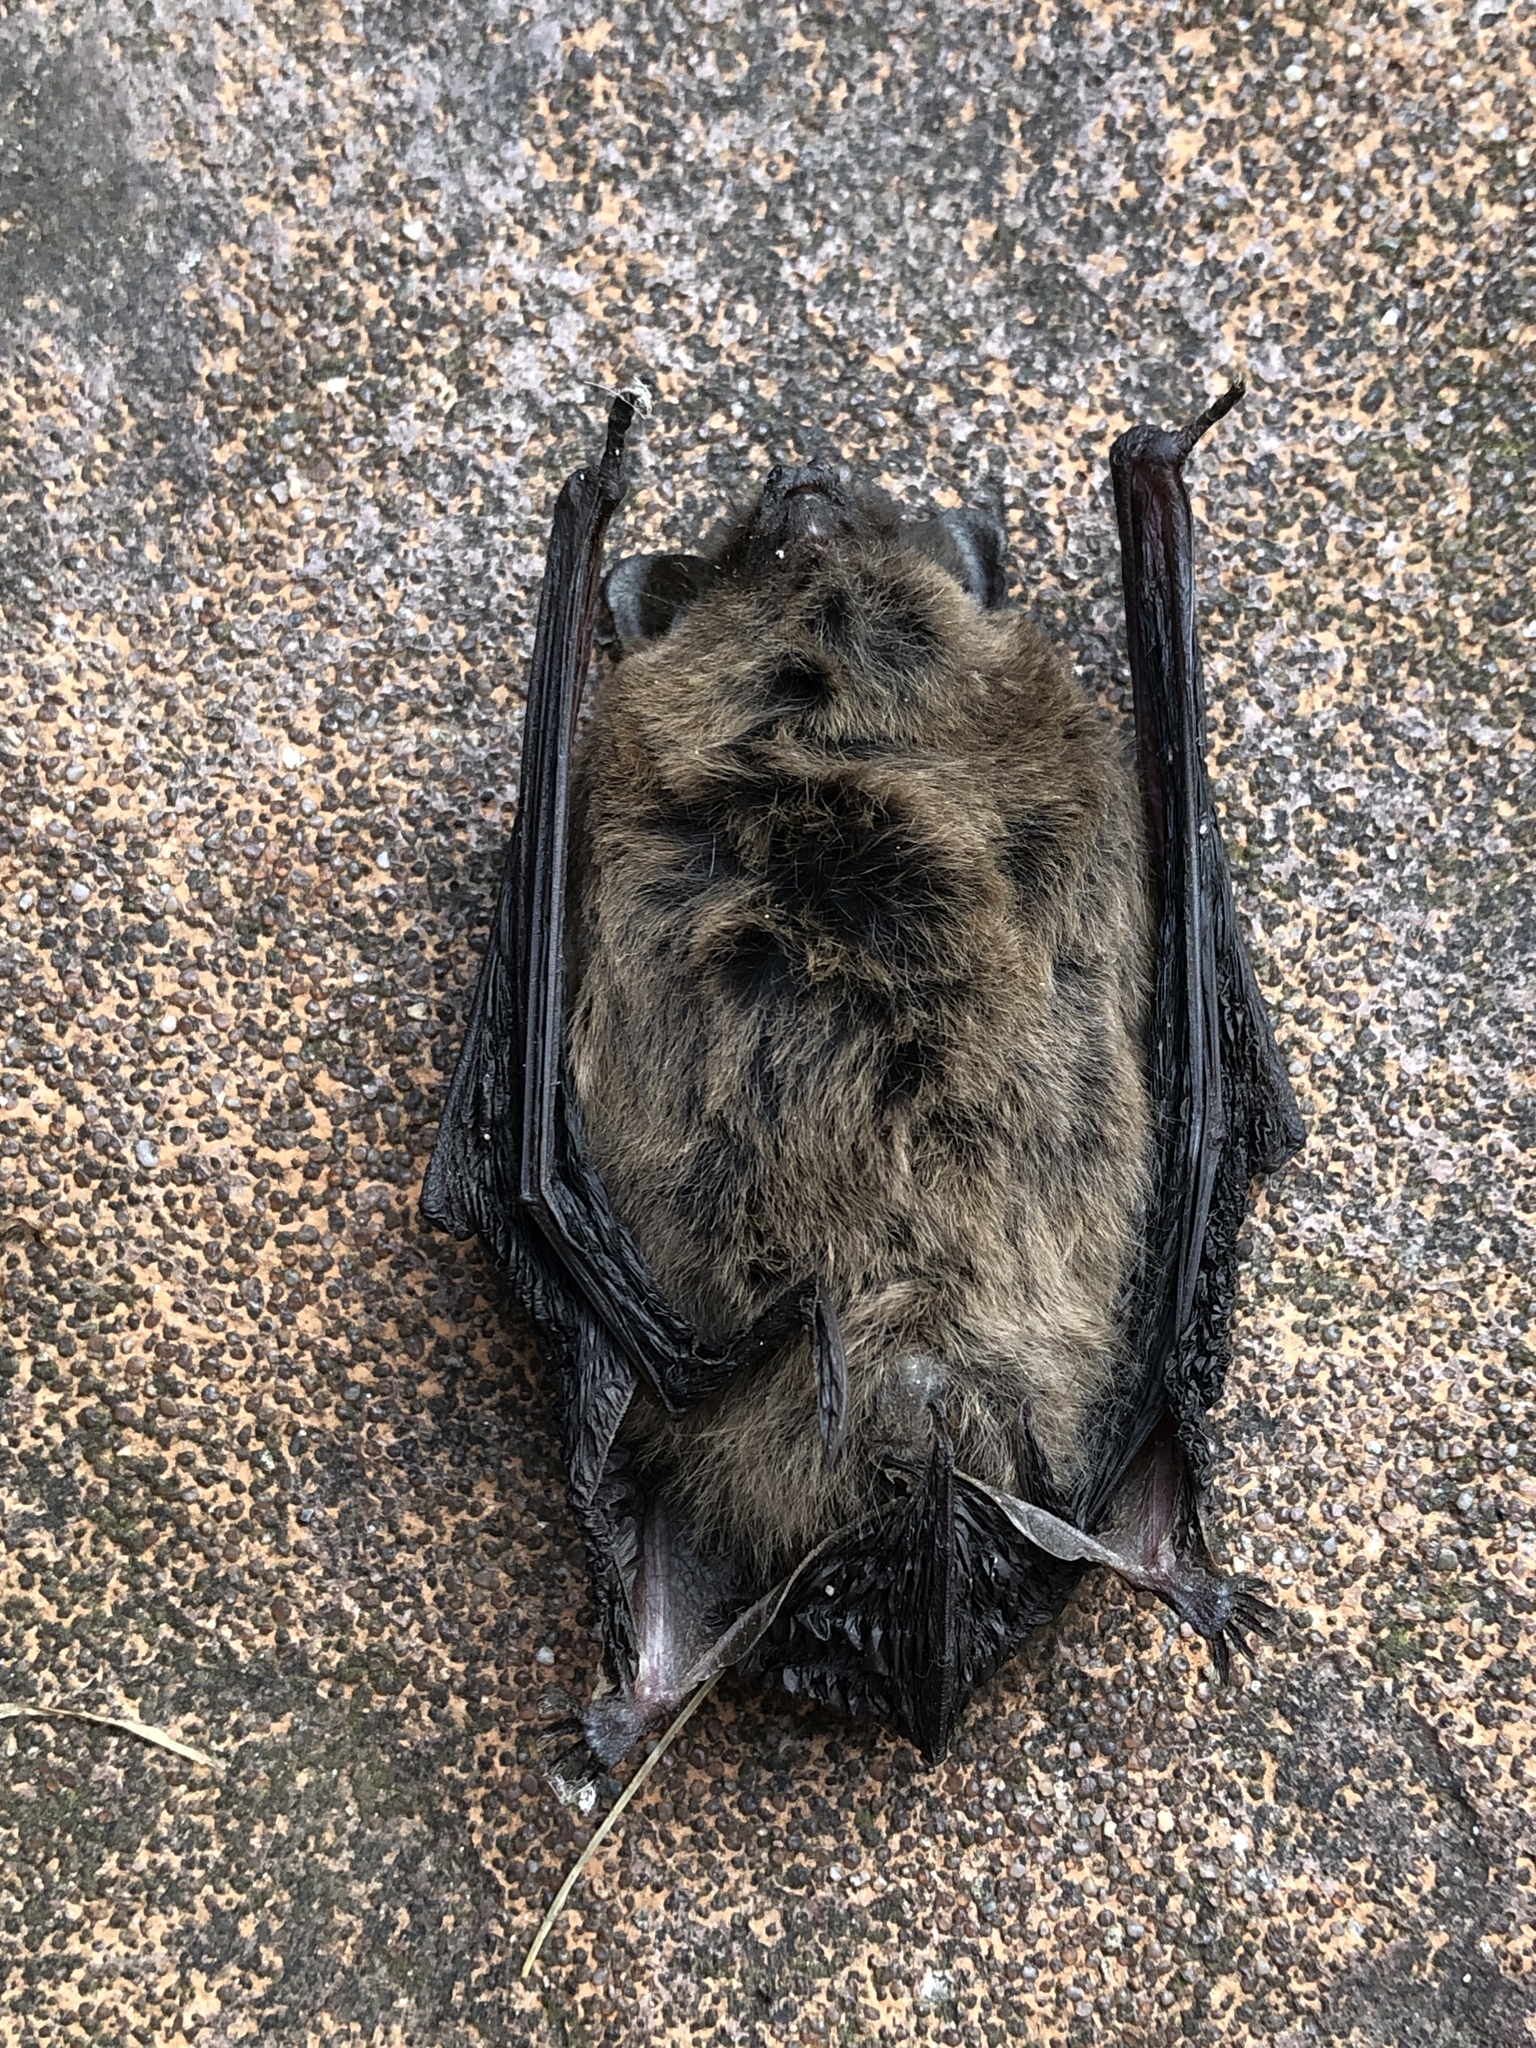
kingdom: Animalia
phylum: Chordata
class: Mammalia
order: Chiroptera
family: Vespertilionidae
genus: Pipistrellus
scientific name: Pipistrellus pipistrellus
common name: Common pipistrelle
